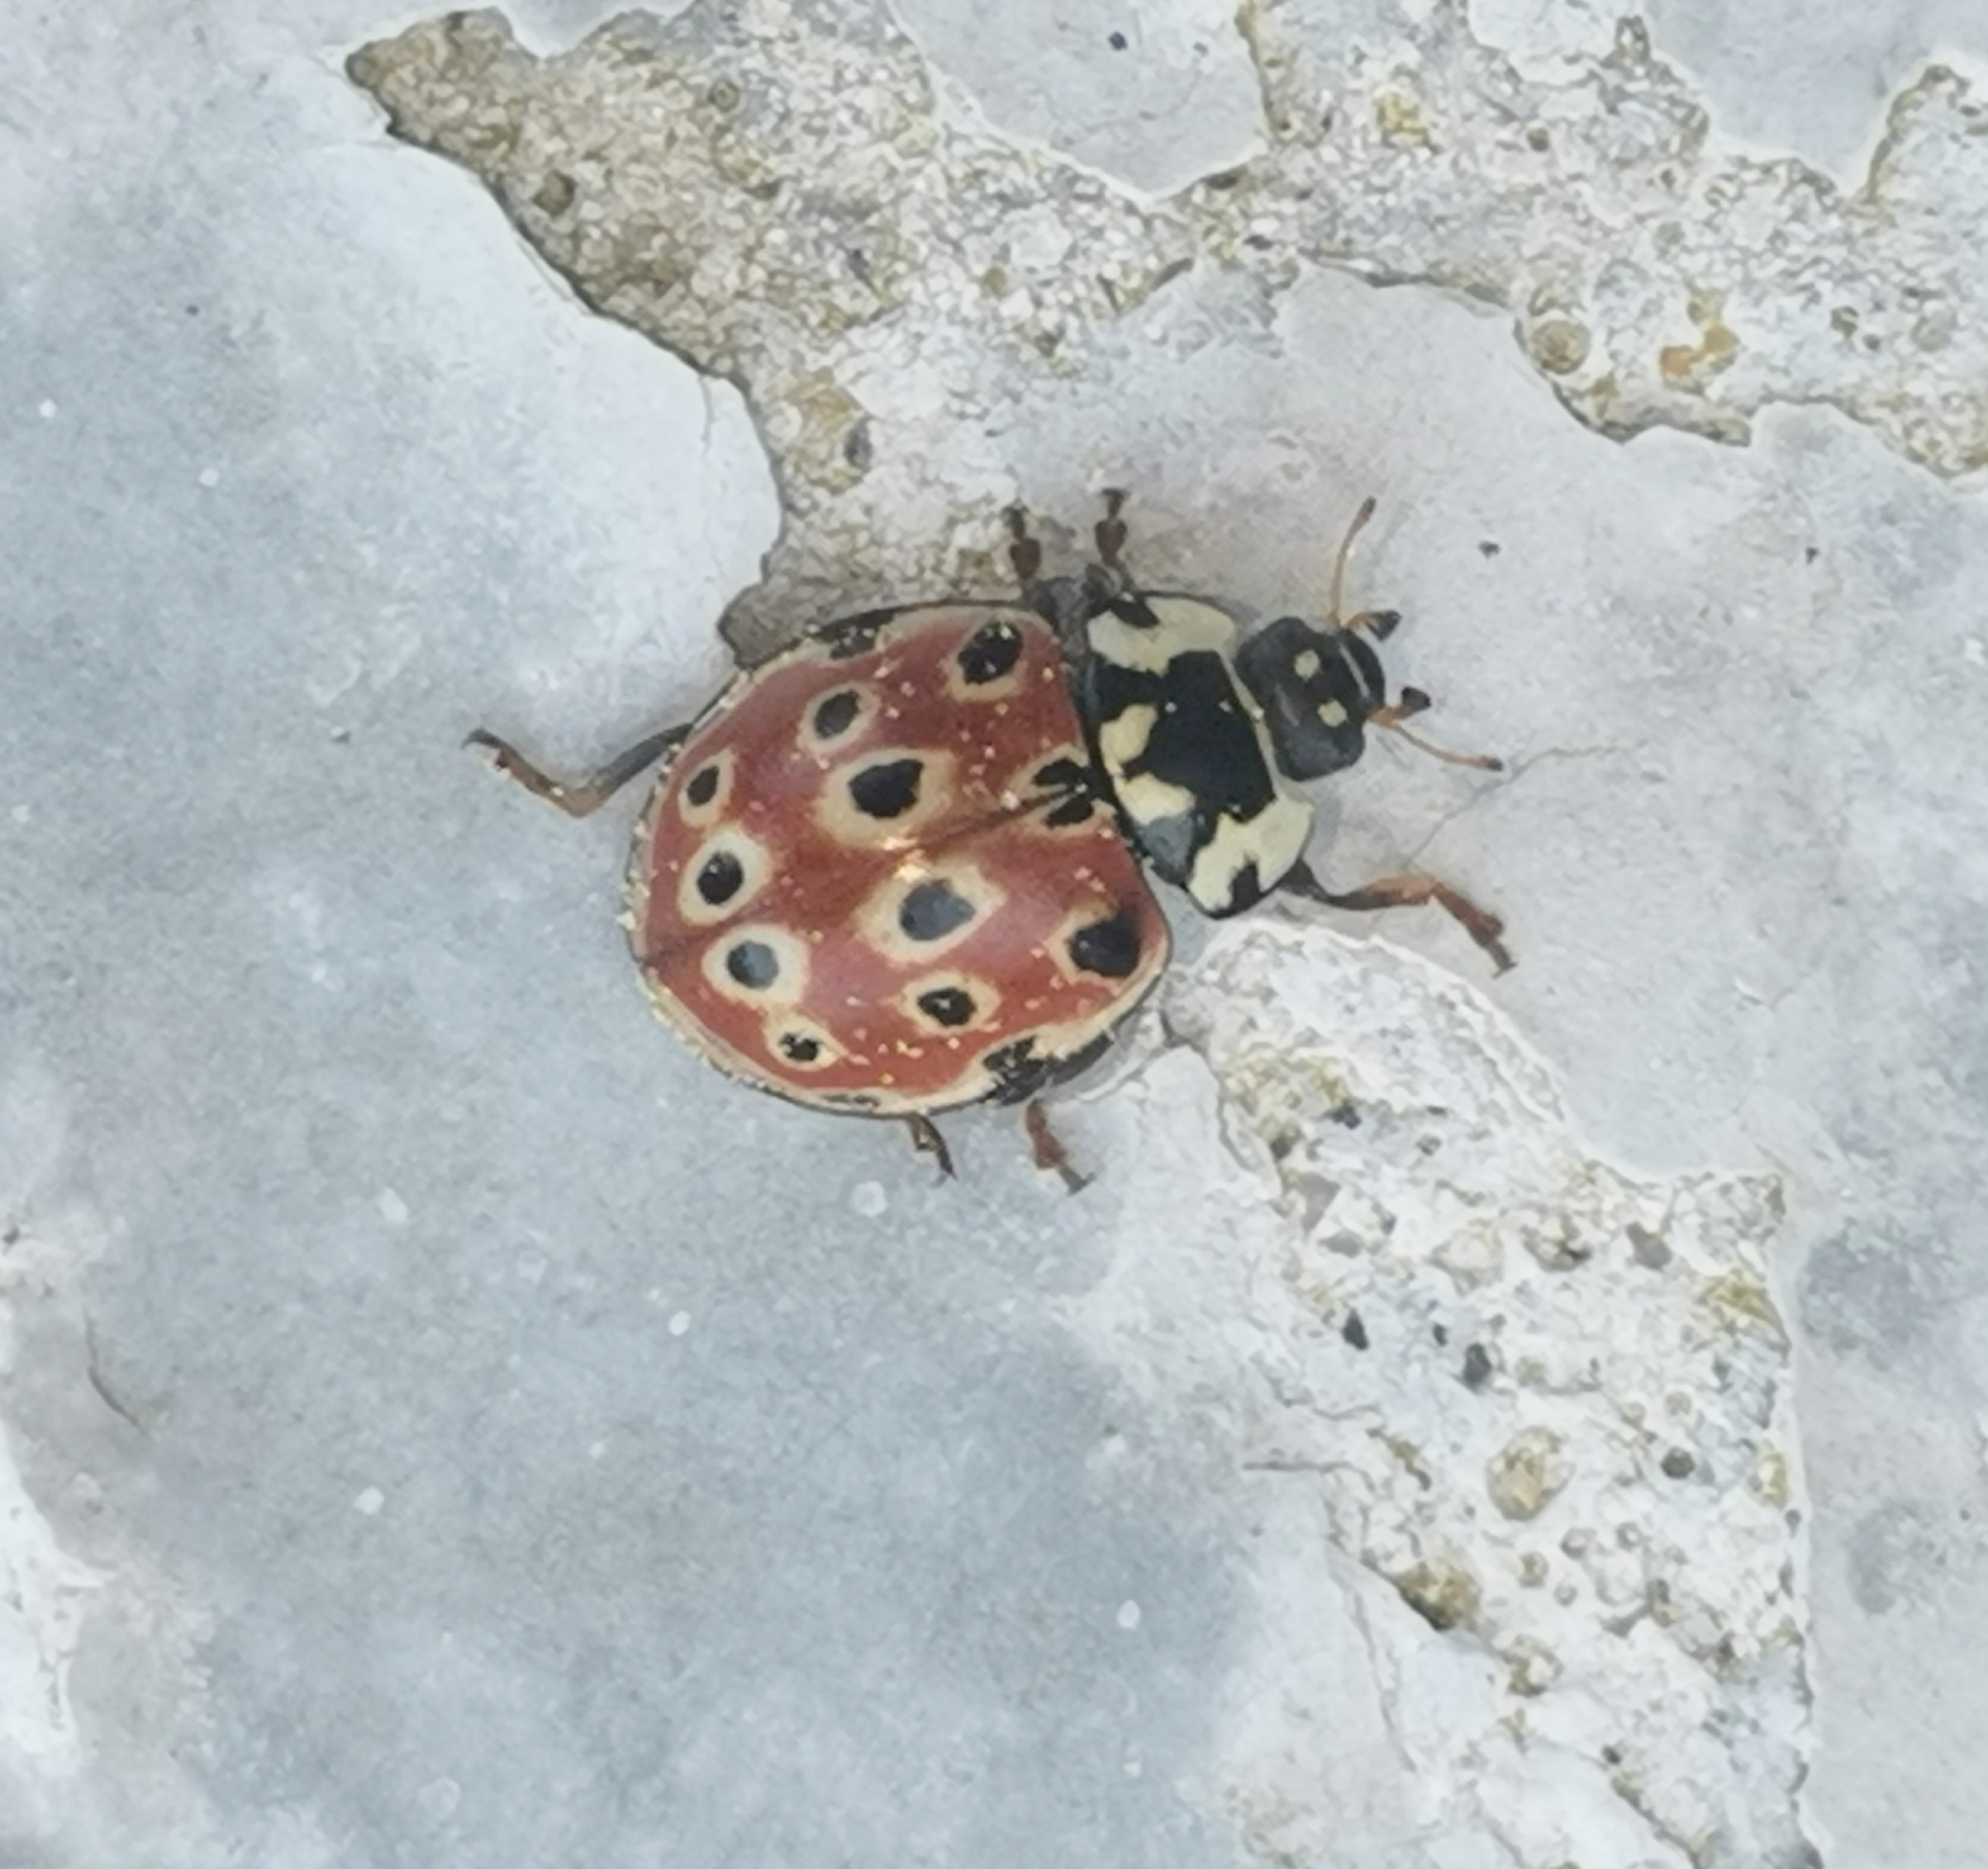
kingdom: Animalia
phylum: Arthropoda
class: Insecta
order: Coleoptera
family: Coccinellidae
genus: Anatis
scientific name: Anatis ocellata
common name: Eyed ladybird
